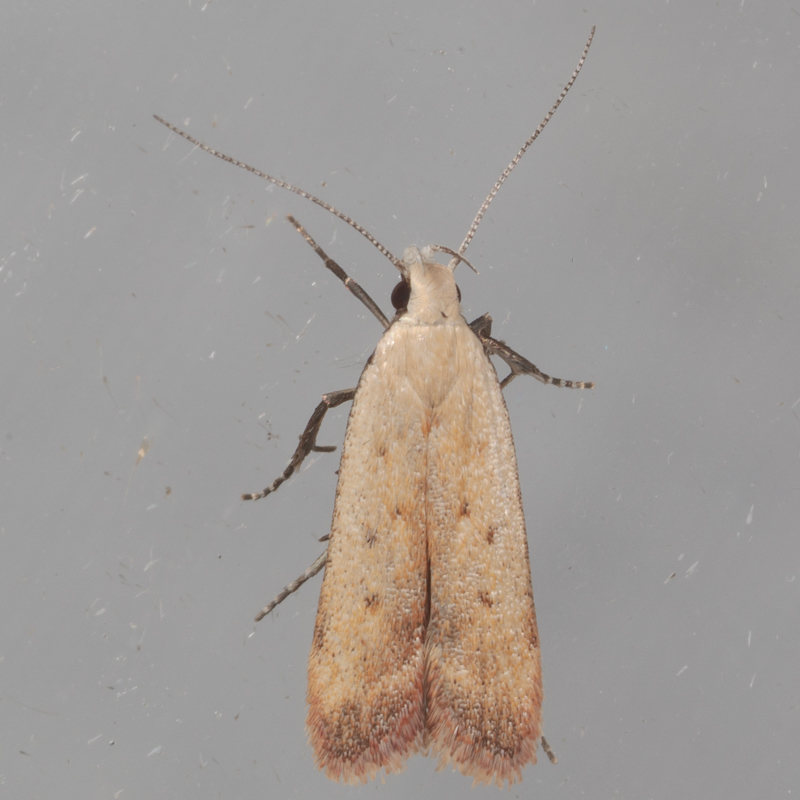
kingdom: Animalia
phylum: Arthropoda
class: Insecta
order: Lepidoptera
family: Gelechiidae
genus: Anacampsis
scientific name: Anacampsis fullonella
